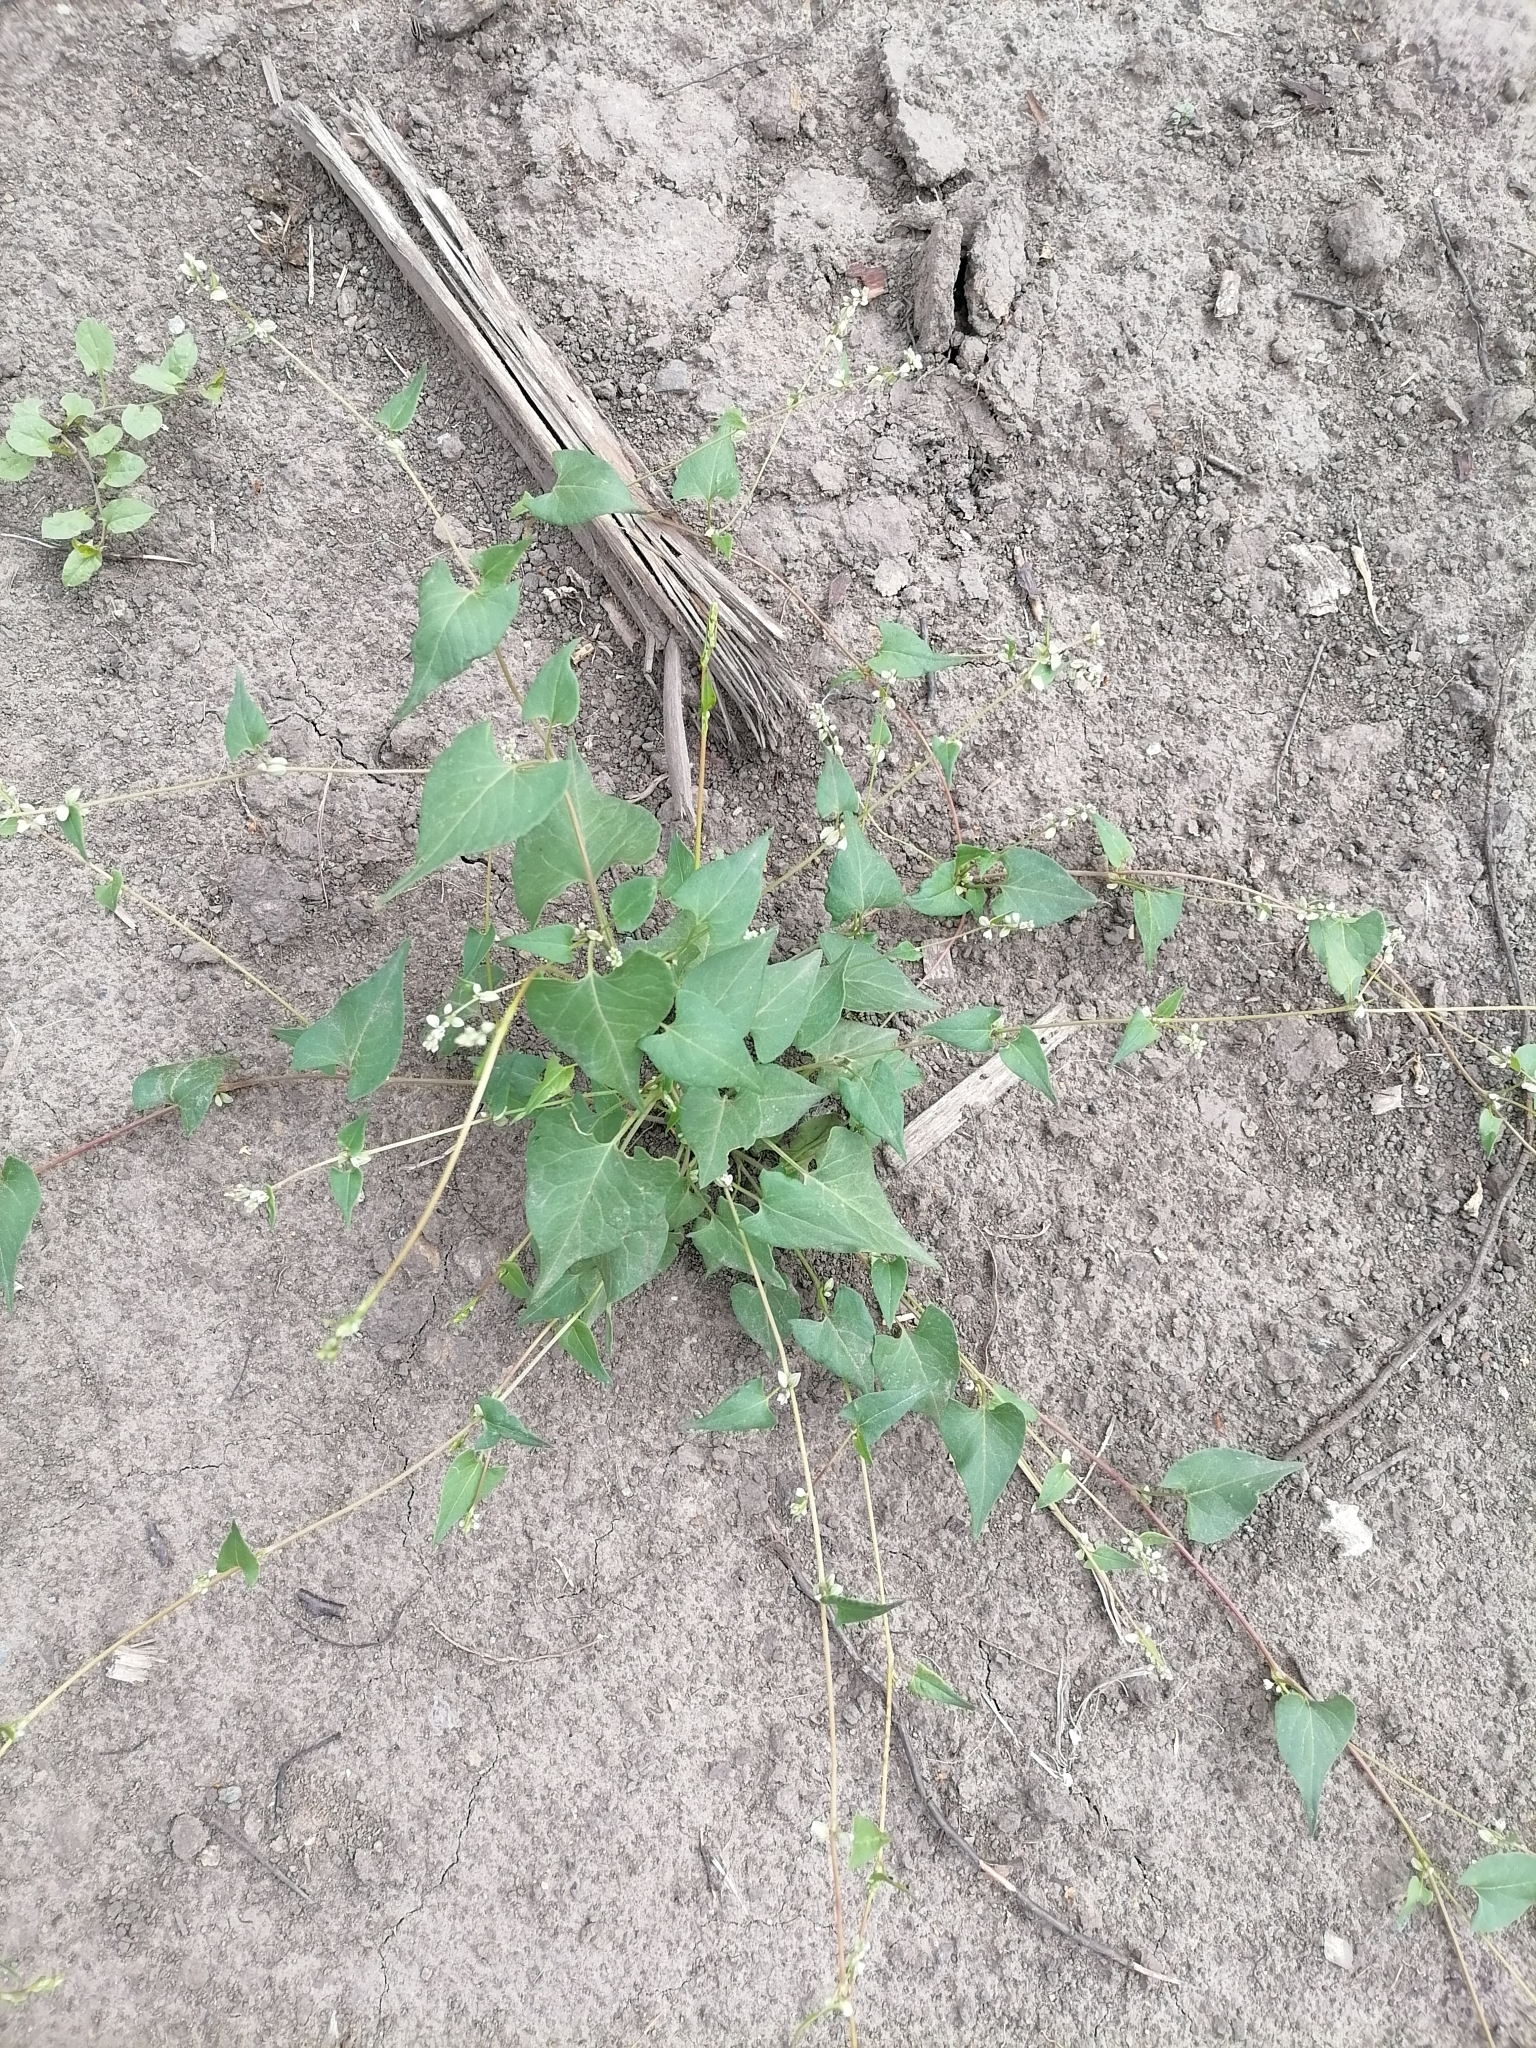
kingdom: Plantae
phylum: Tracheophyta
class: Magnoliopsida
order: Caryophyllales
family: Polygonaceae
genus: Fallopia
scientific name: Fallopia convolvulus
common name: Black bindweed
